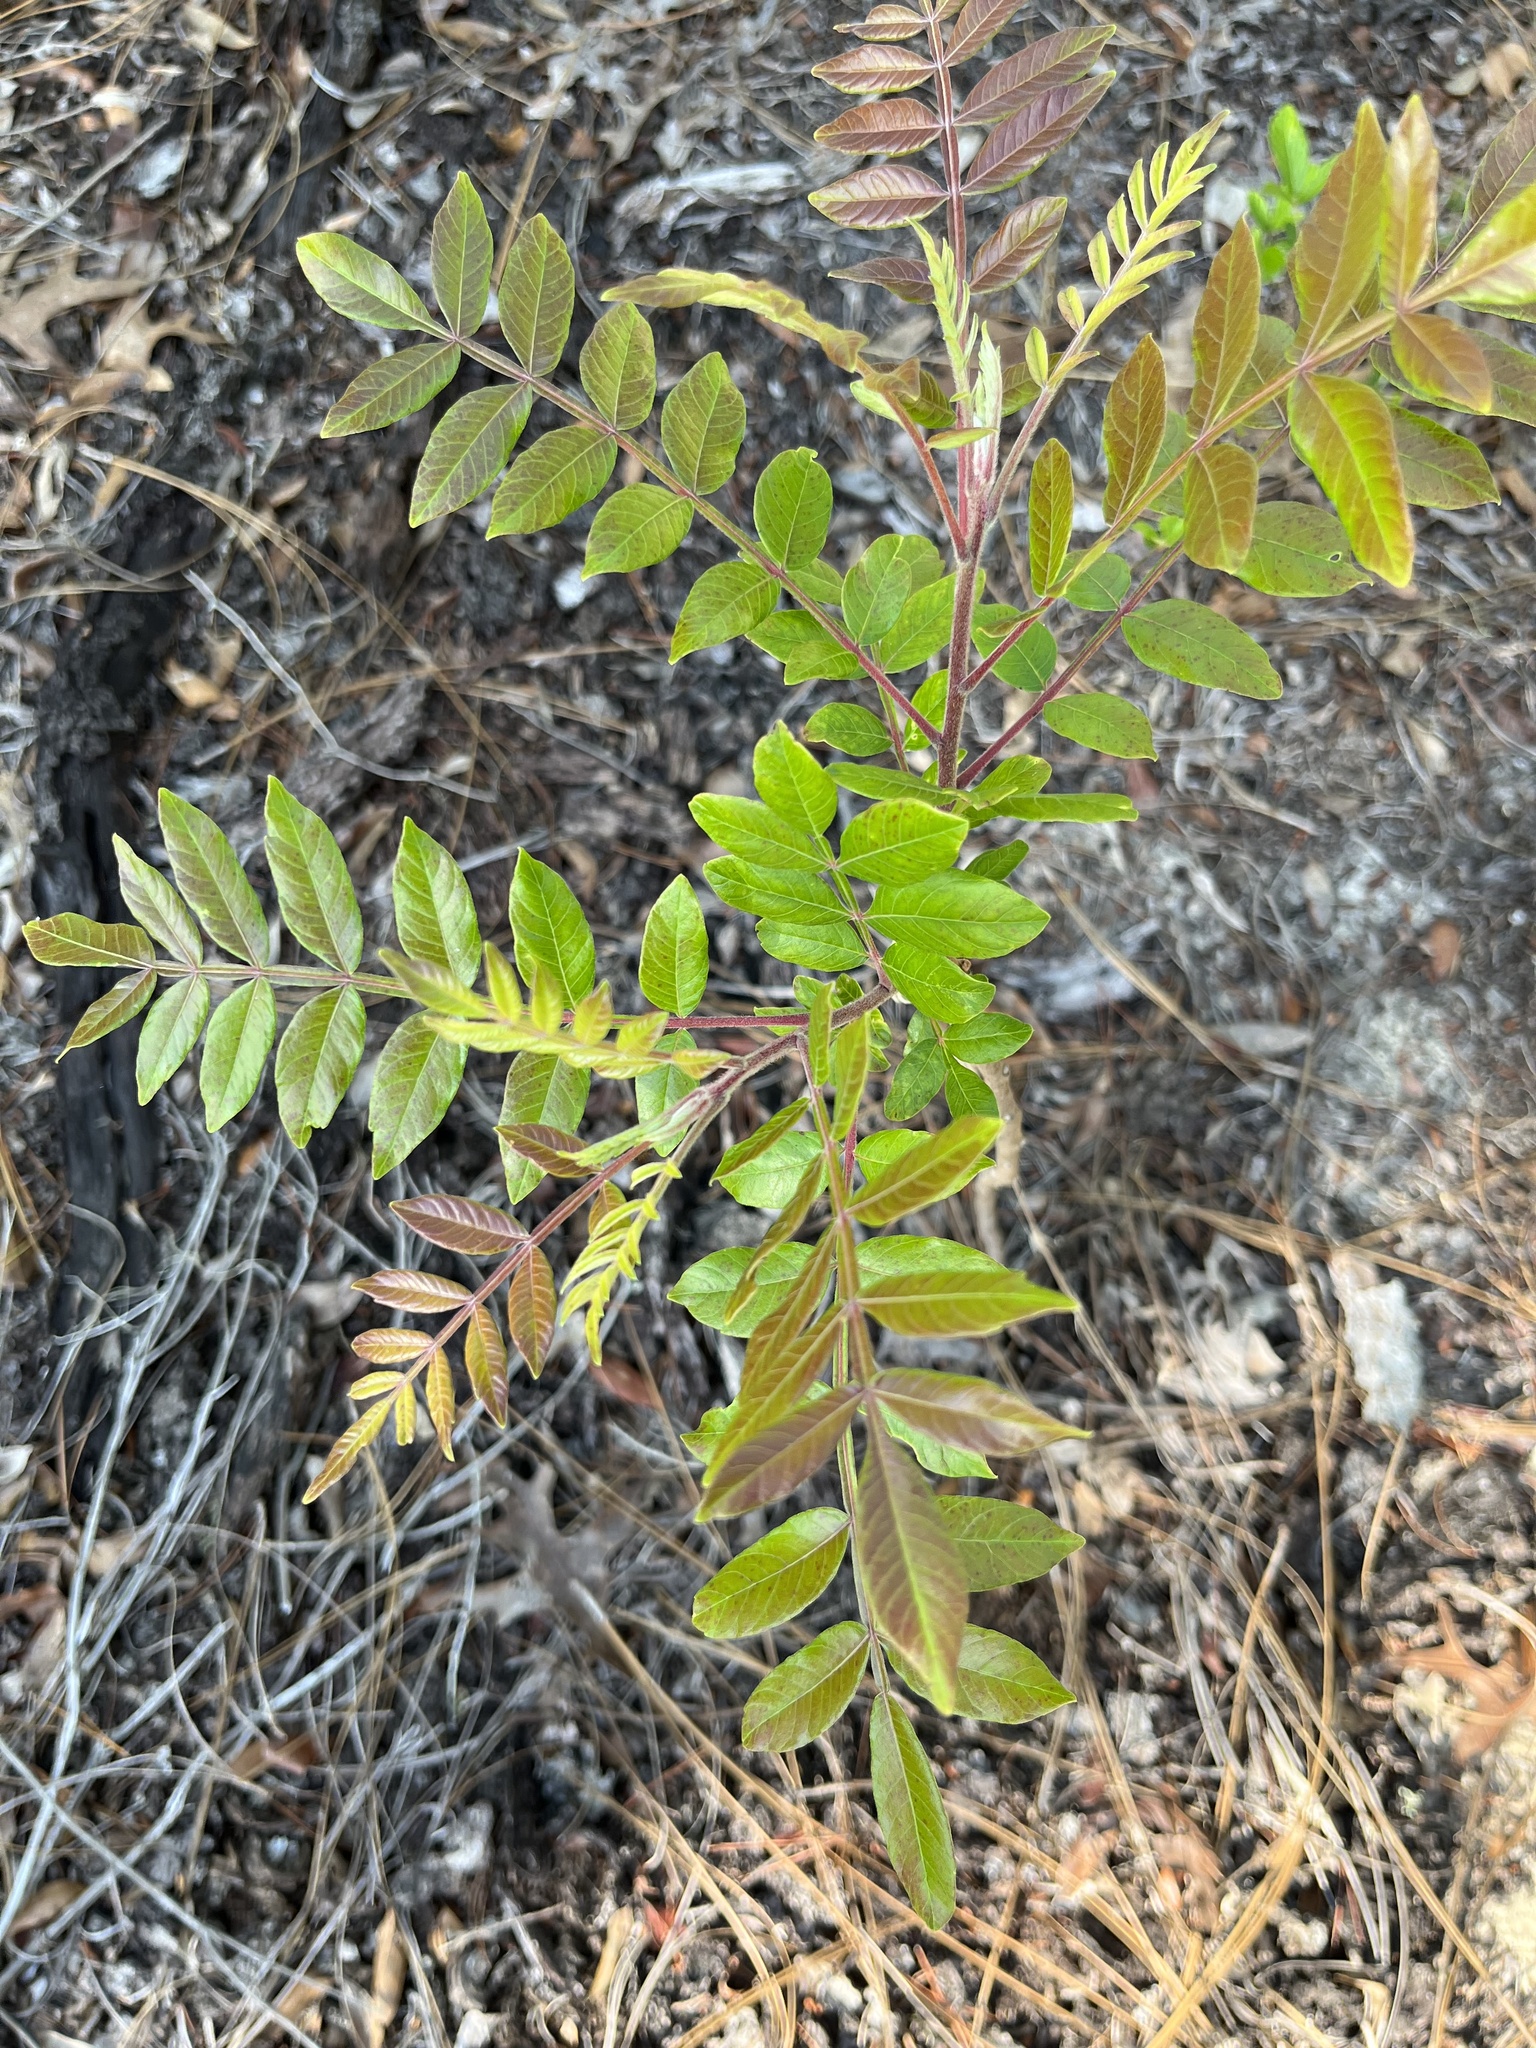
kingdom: Plantae
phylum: Tracheophyta
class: Magnoliopsida
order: Sapindales
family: Anacardiaceae
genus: Rhus
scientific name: Rhus copallina
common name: Shining sumac
